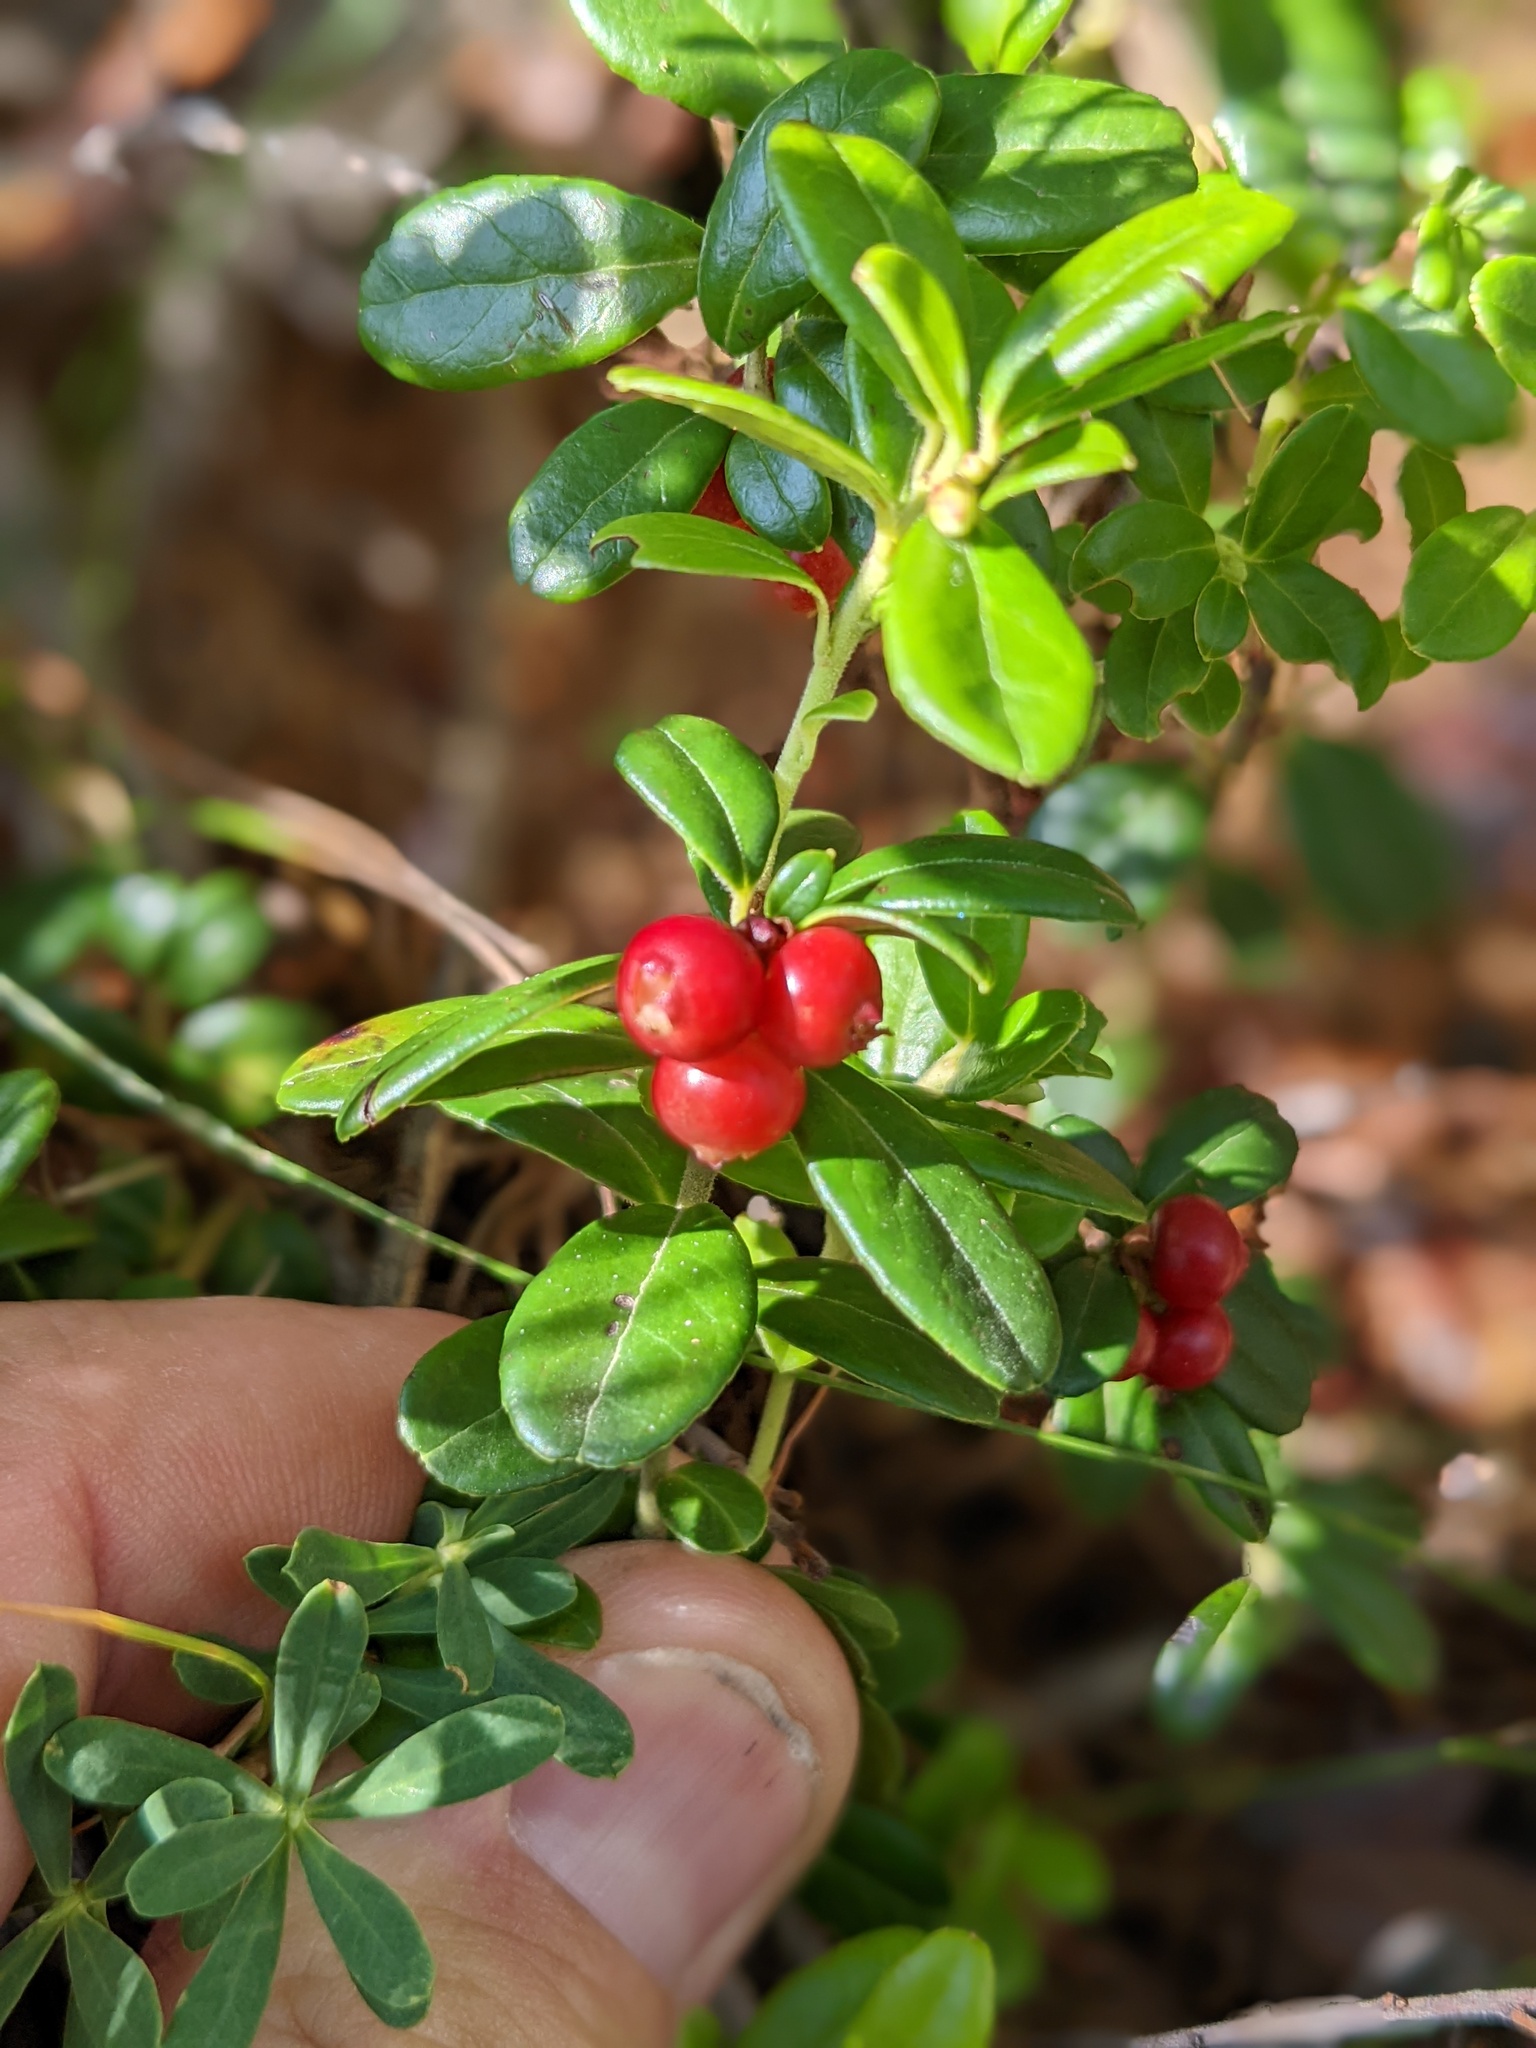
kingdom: Plantae
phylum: Tracheophyta
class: Magnoliopsida
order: Ericales
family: Ericaceae
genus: Vaccinium
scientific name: Vaccinium vitis-idaea
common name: Cowberry
